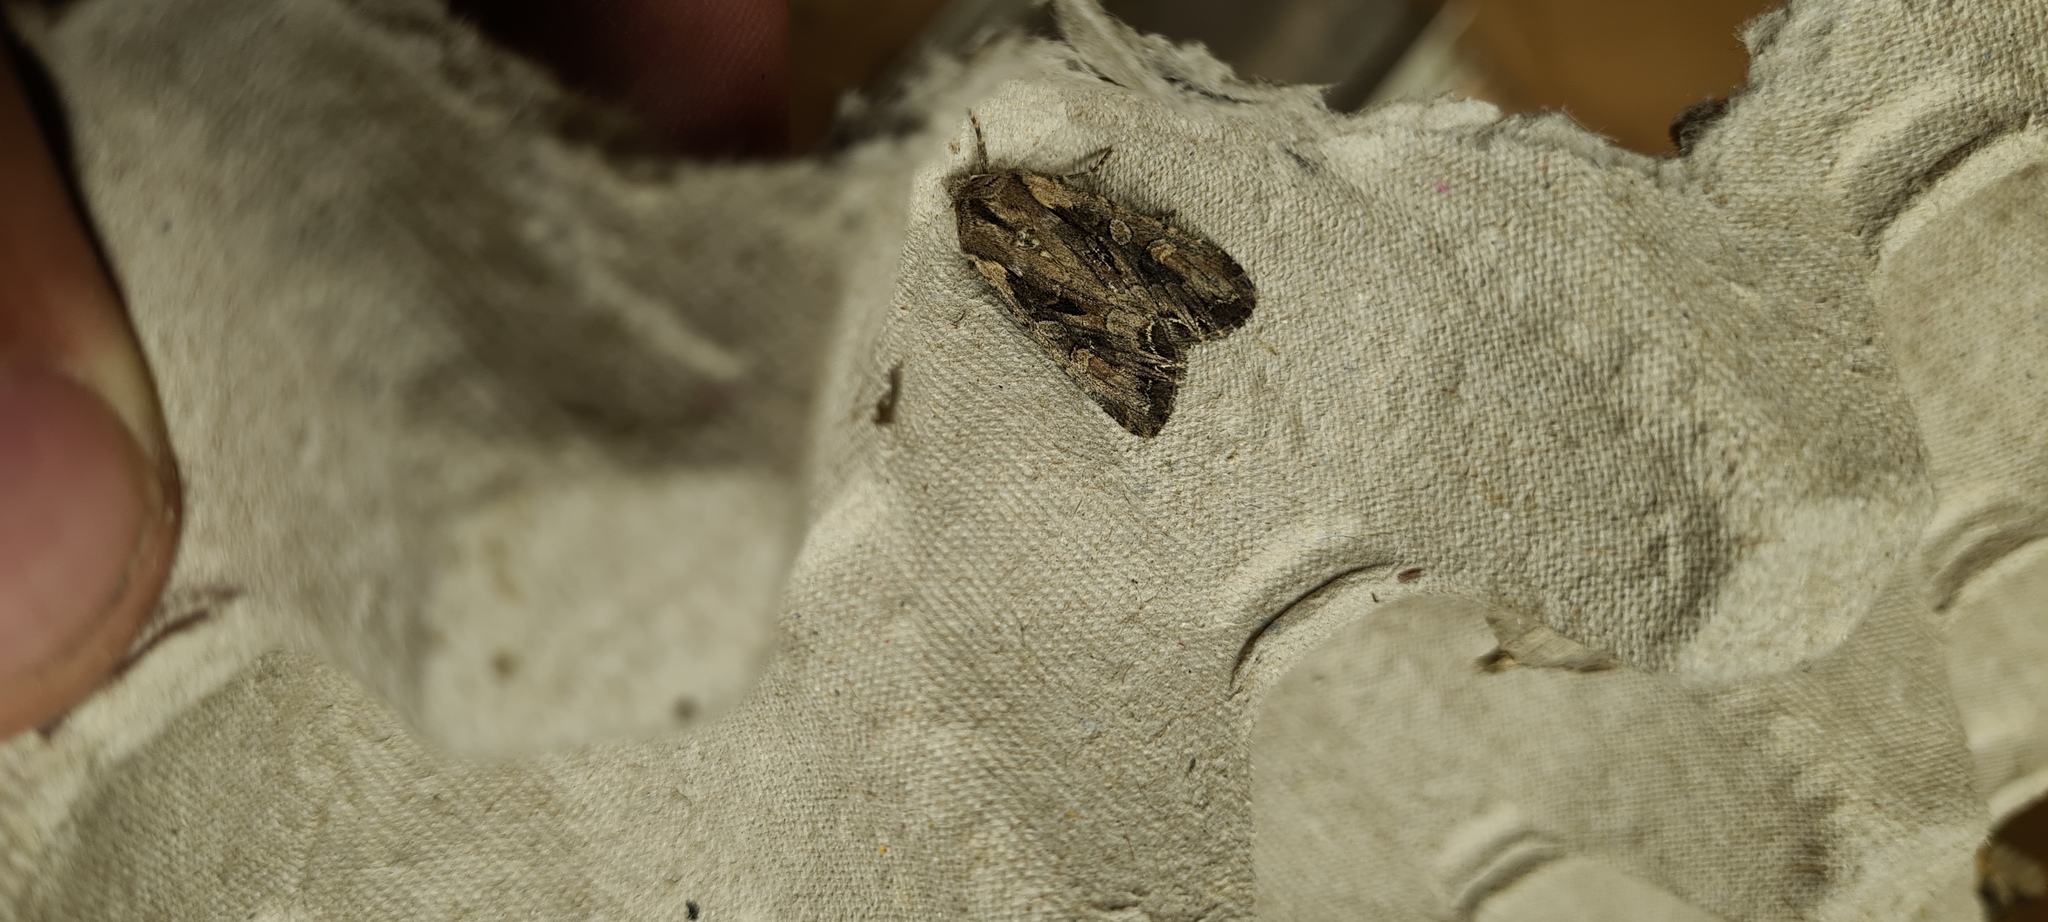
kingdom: Animalia
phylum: Arthropoda
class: Insecta
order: Lepidoptera
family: Noctuidae
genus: Lacanobia
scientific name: Lacanobia thalassina
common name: Pale-shouldered brocade
